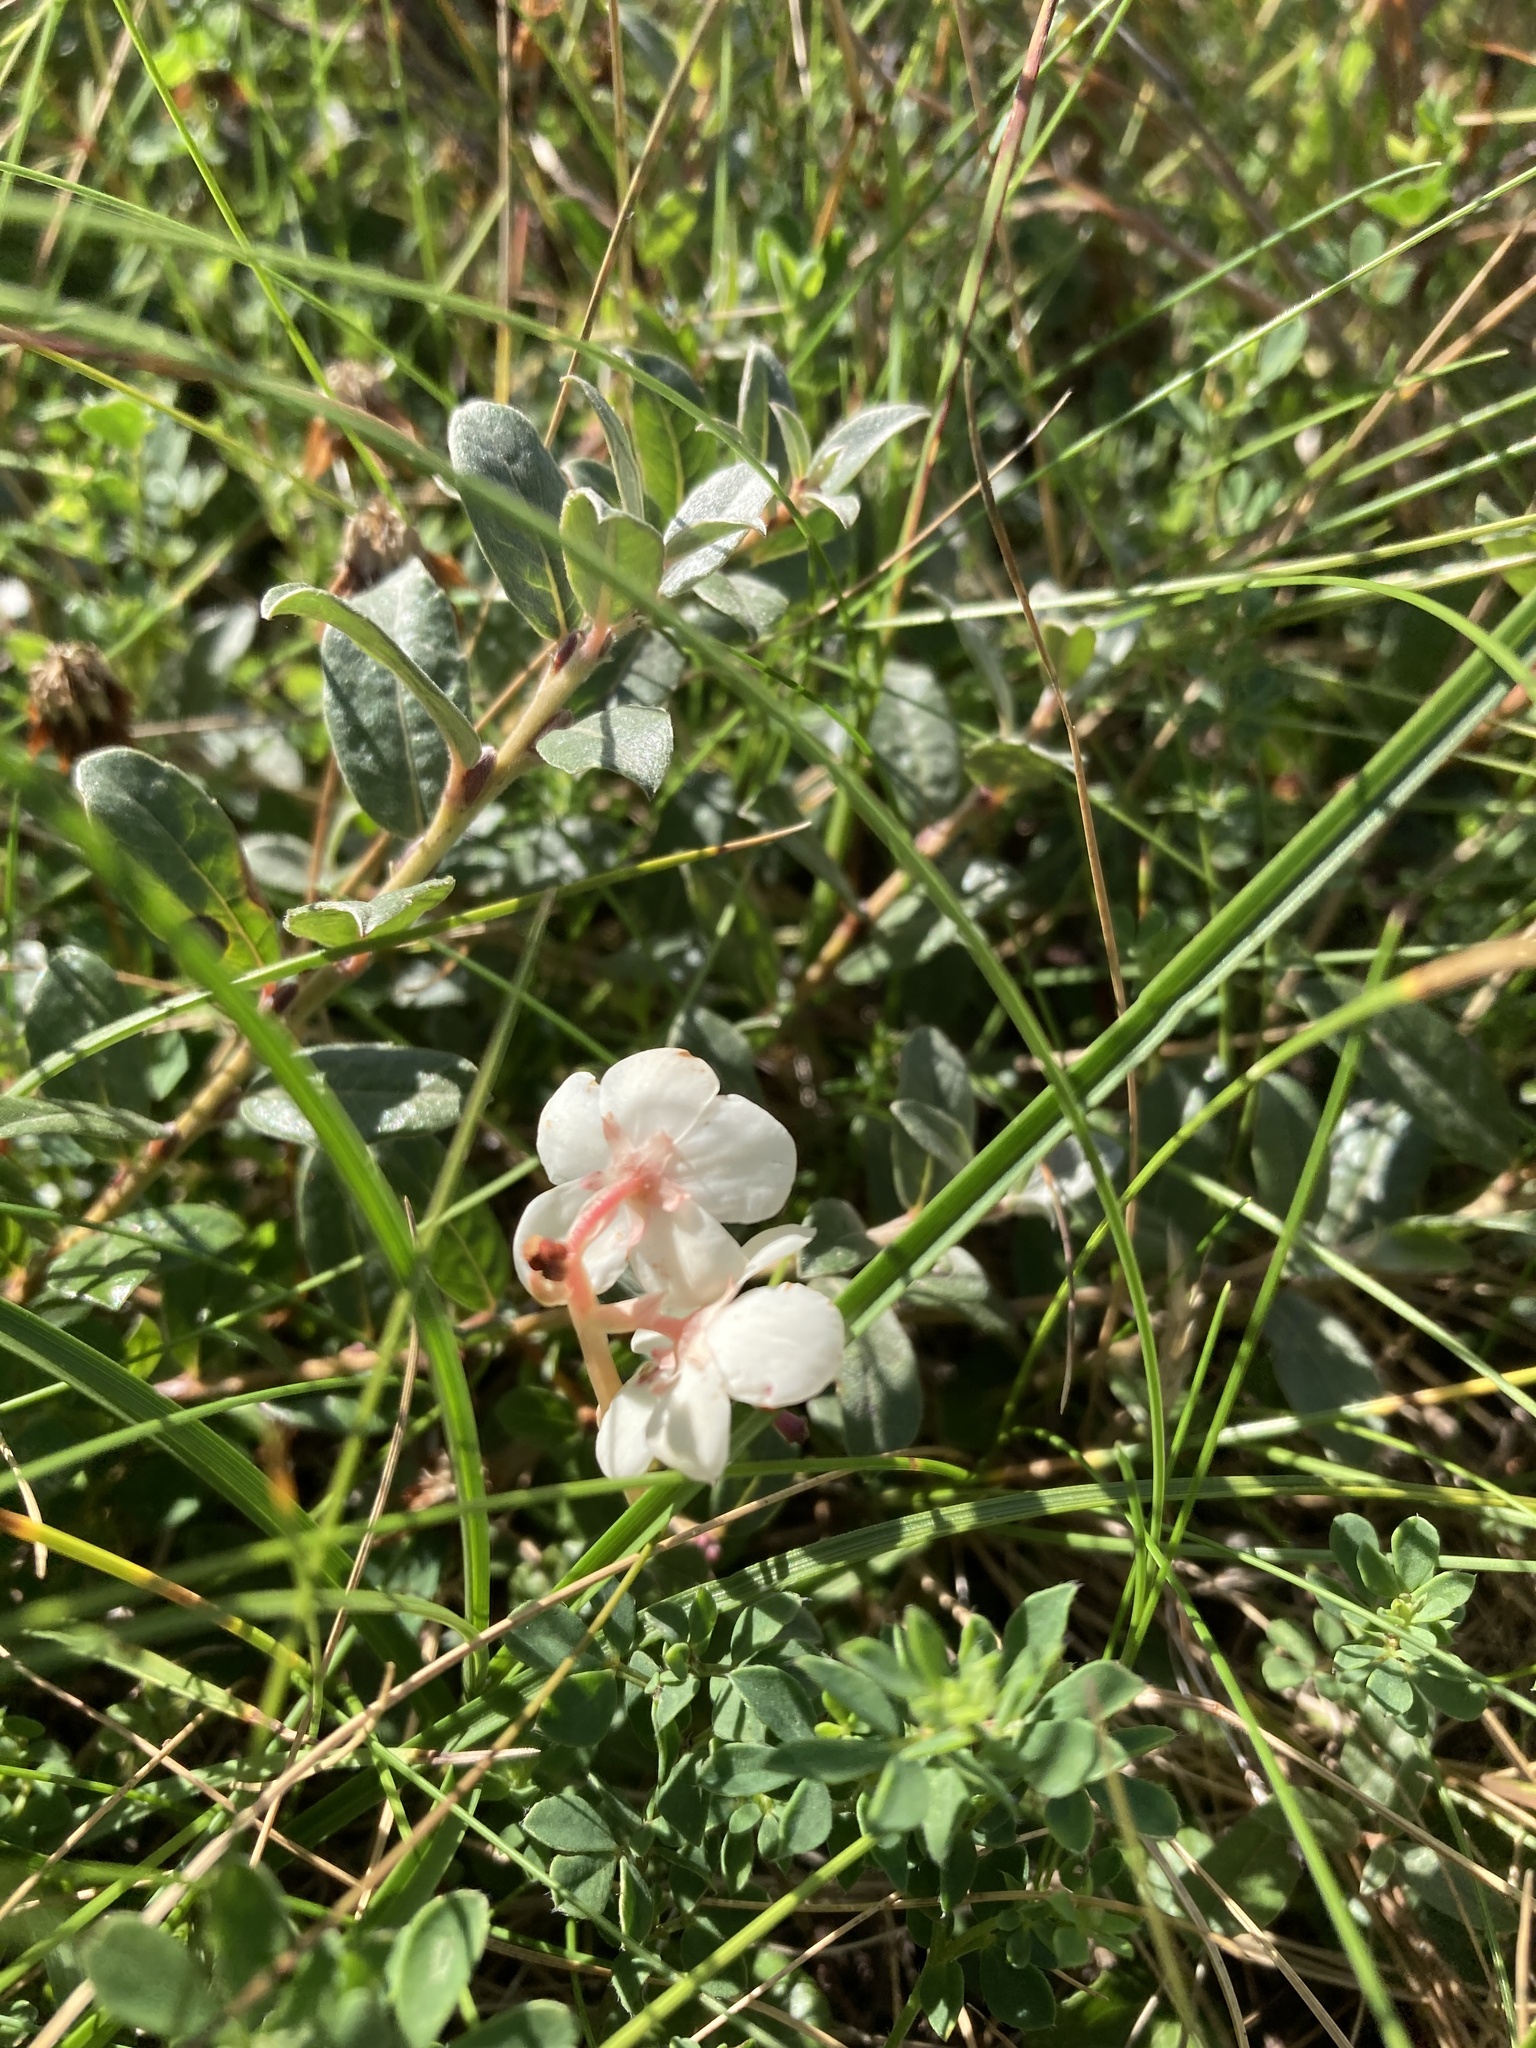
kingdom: Plantae
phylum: Tracheophyta
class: Magnoliopsida
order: Ericales
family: Ericaceae
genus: Pyrola
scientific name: Pyrola rotundifolia
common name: Round-leaved wintergreen
